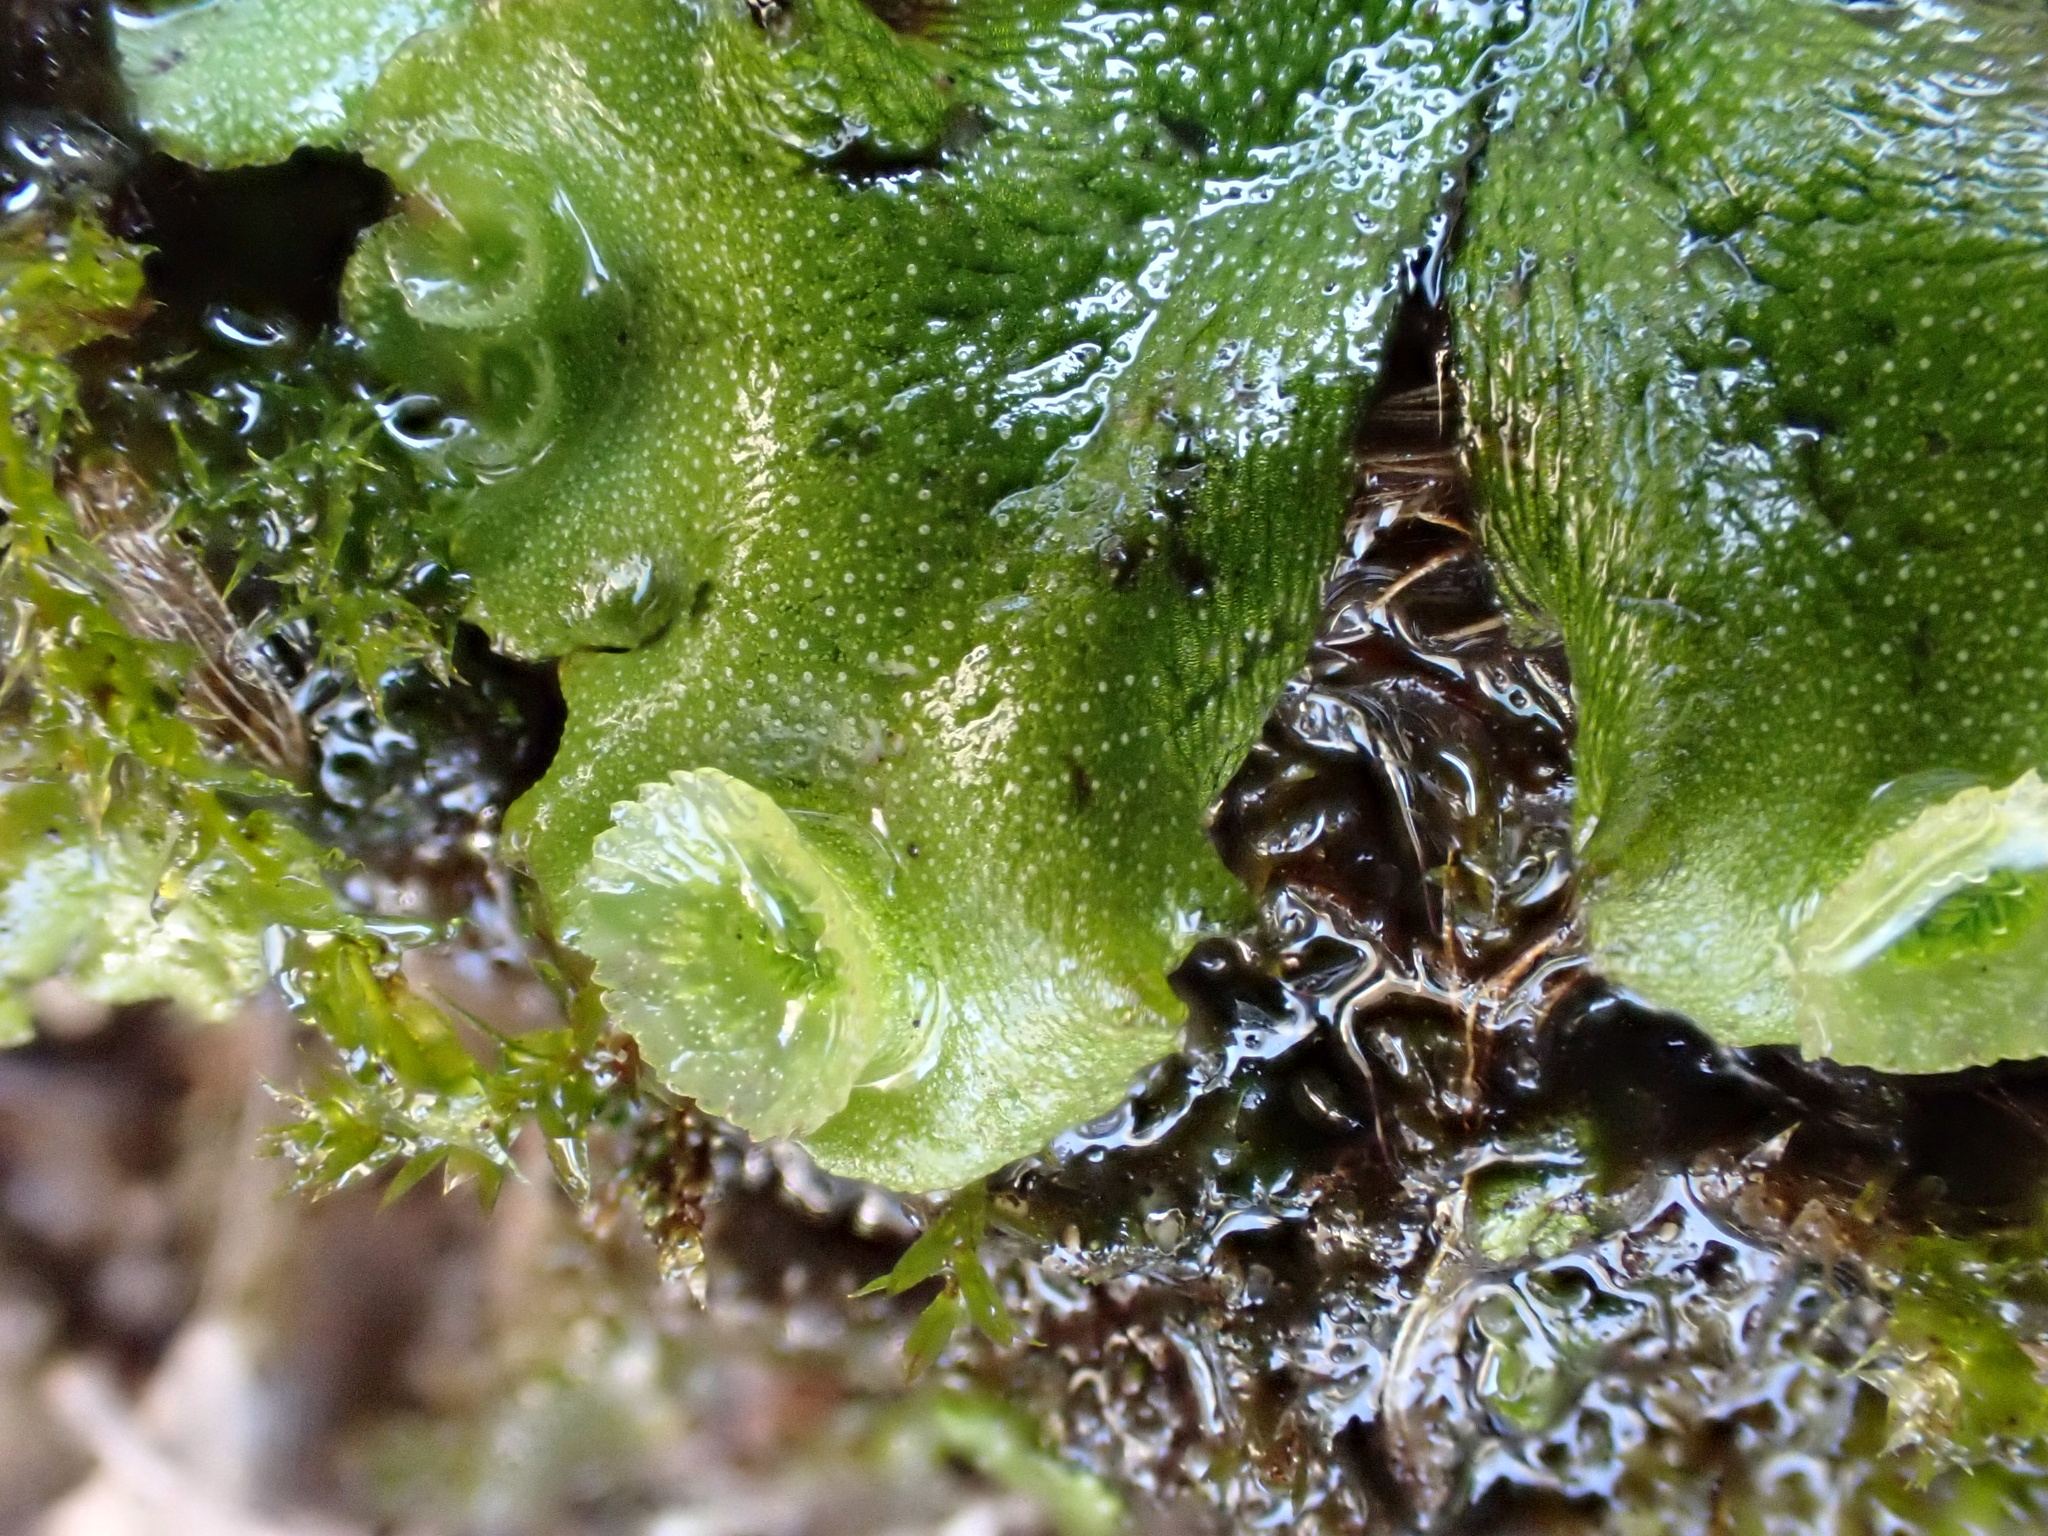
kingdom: Plantae
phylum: Marchantiophyta
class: Marchantiopsida
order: Marchantiales
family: Marchantiaceae
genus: Marchantia
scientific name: Marchantia polymorpha
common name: Common liverwort
